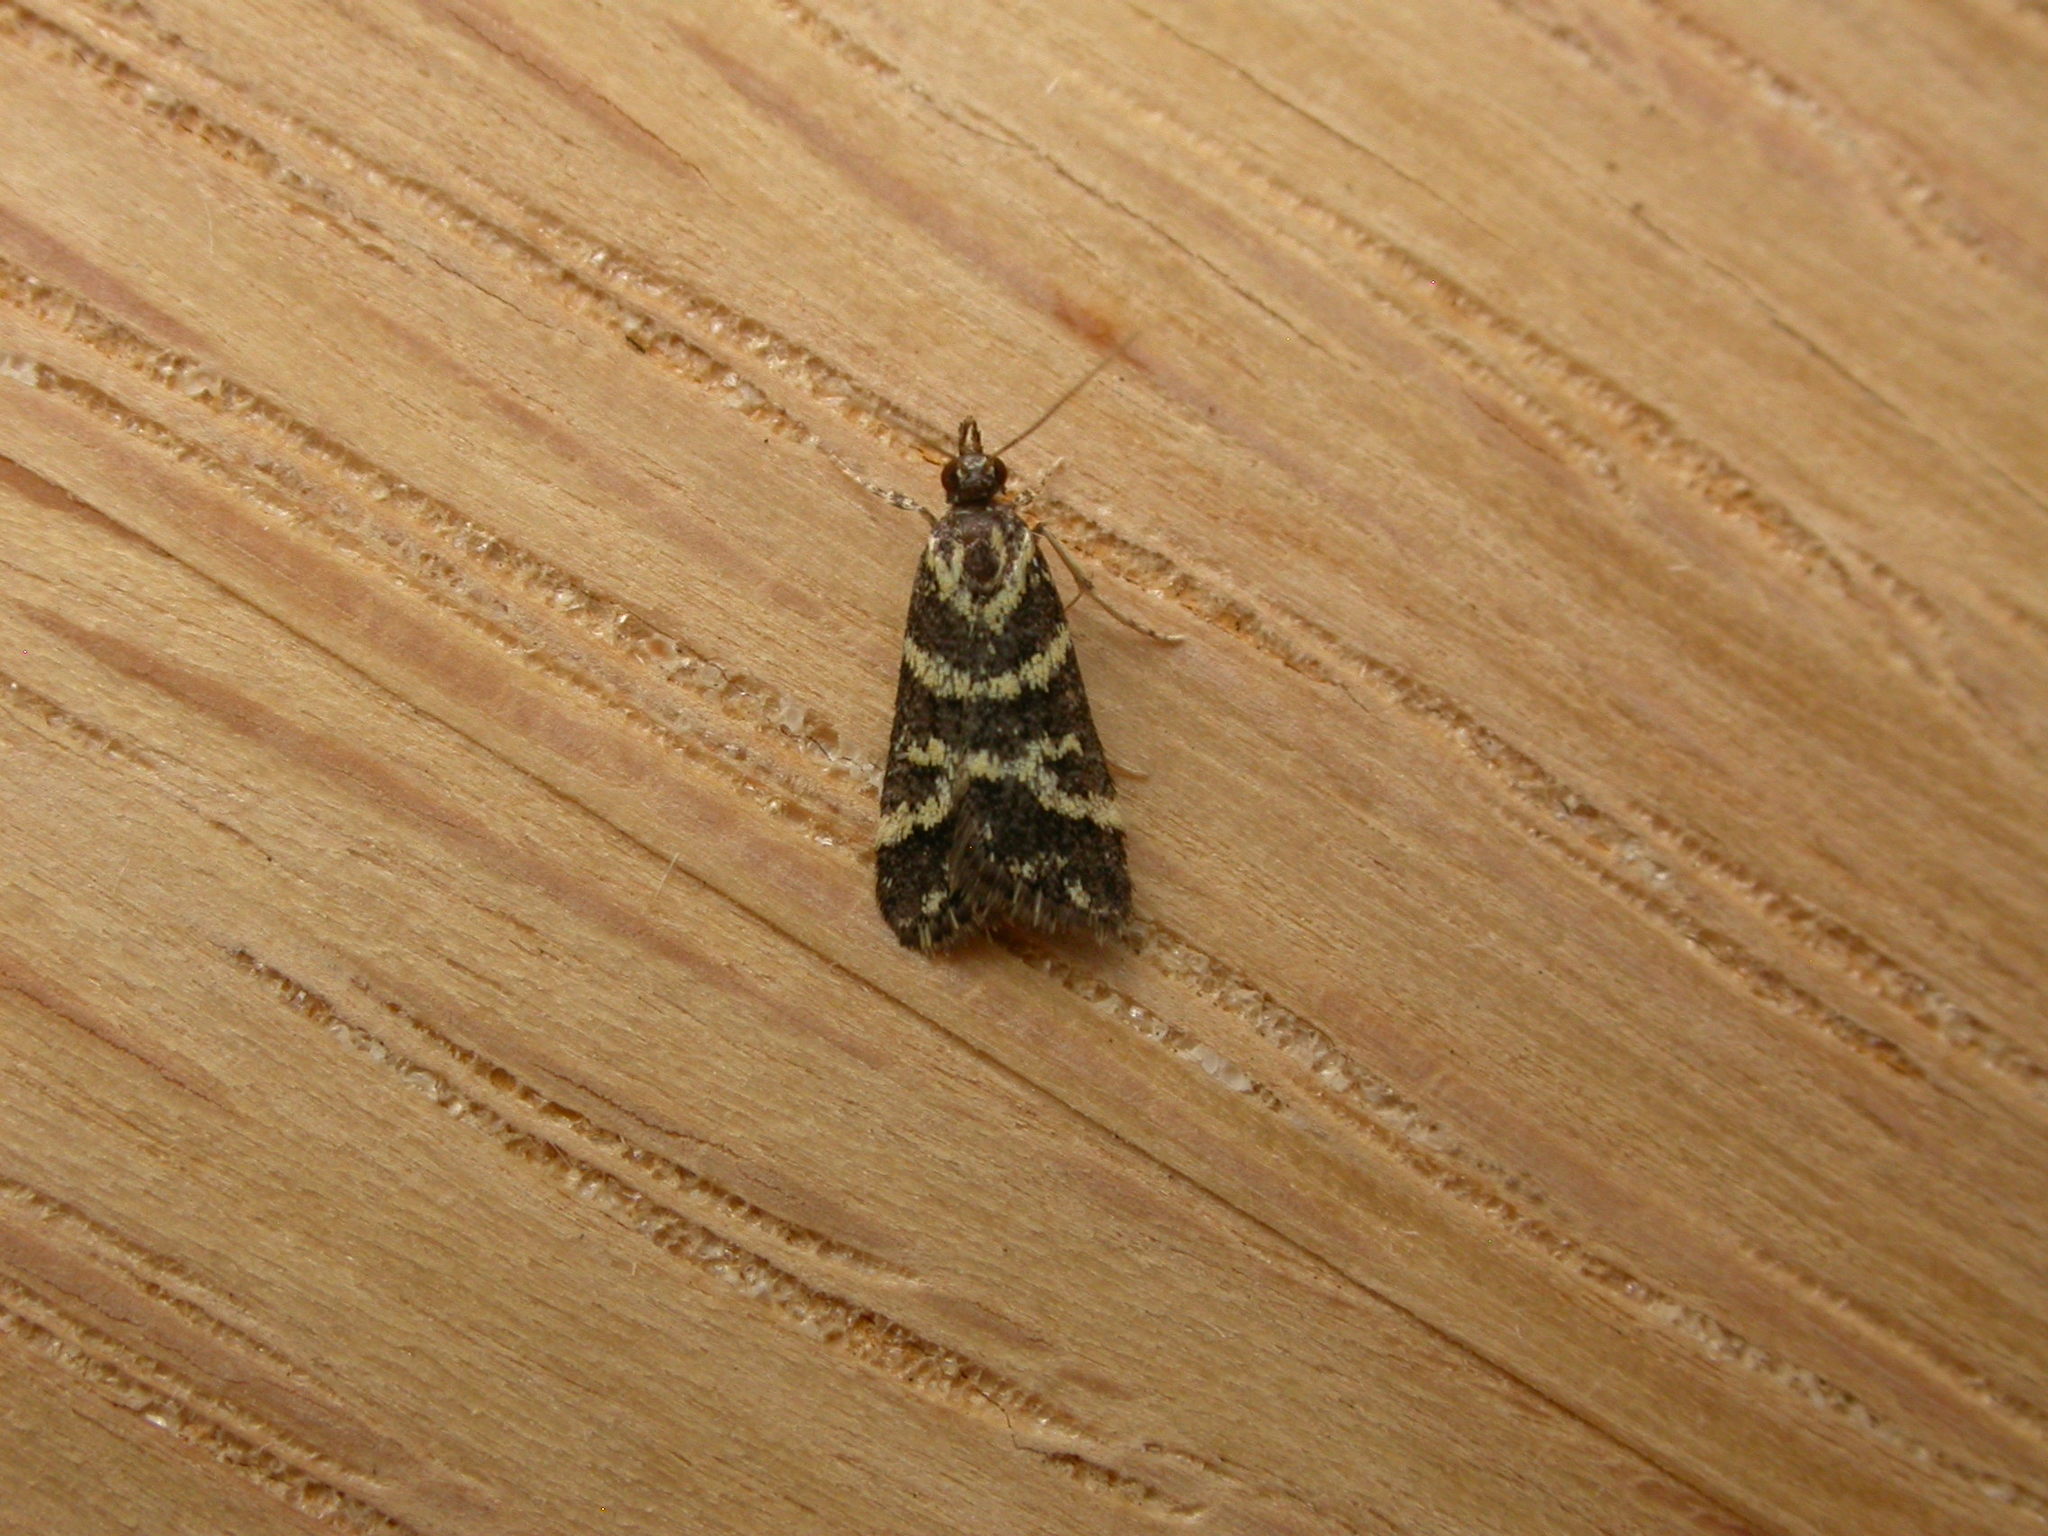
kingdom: Animalia
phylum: Arthropoda
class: Insecta
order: Lepidoptera
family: Crambidae
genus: Scoparia
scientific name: Scoparia spelaea
